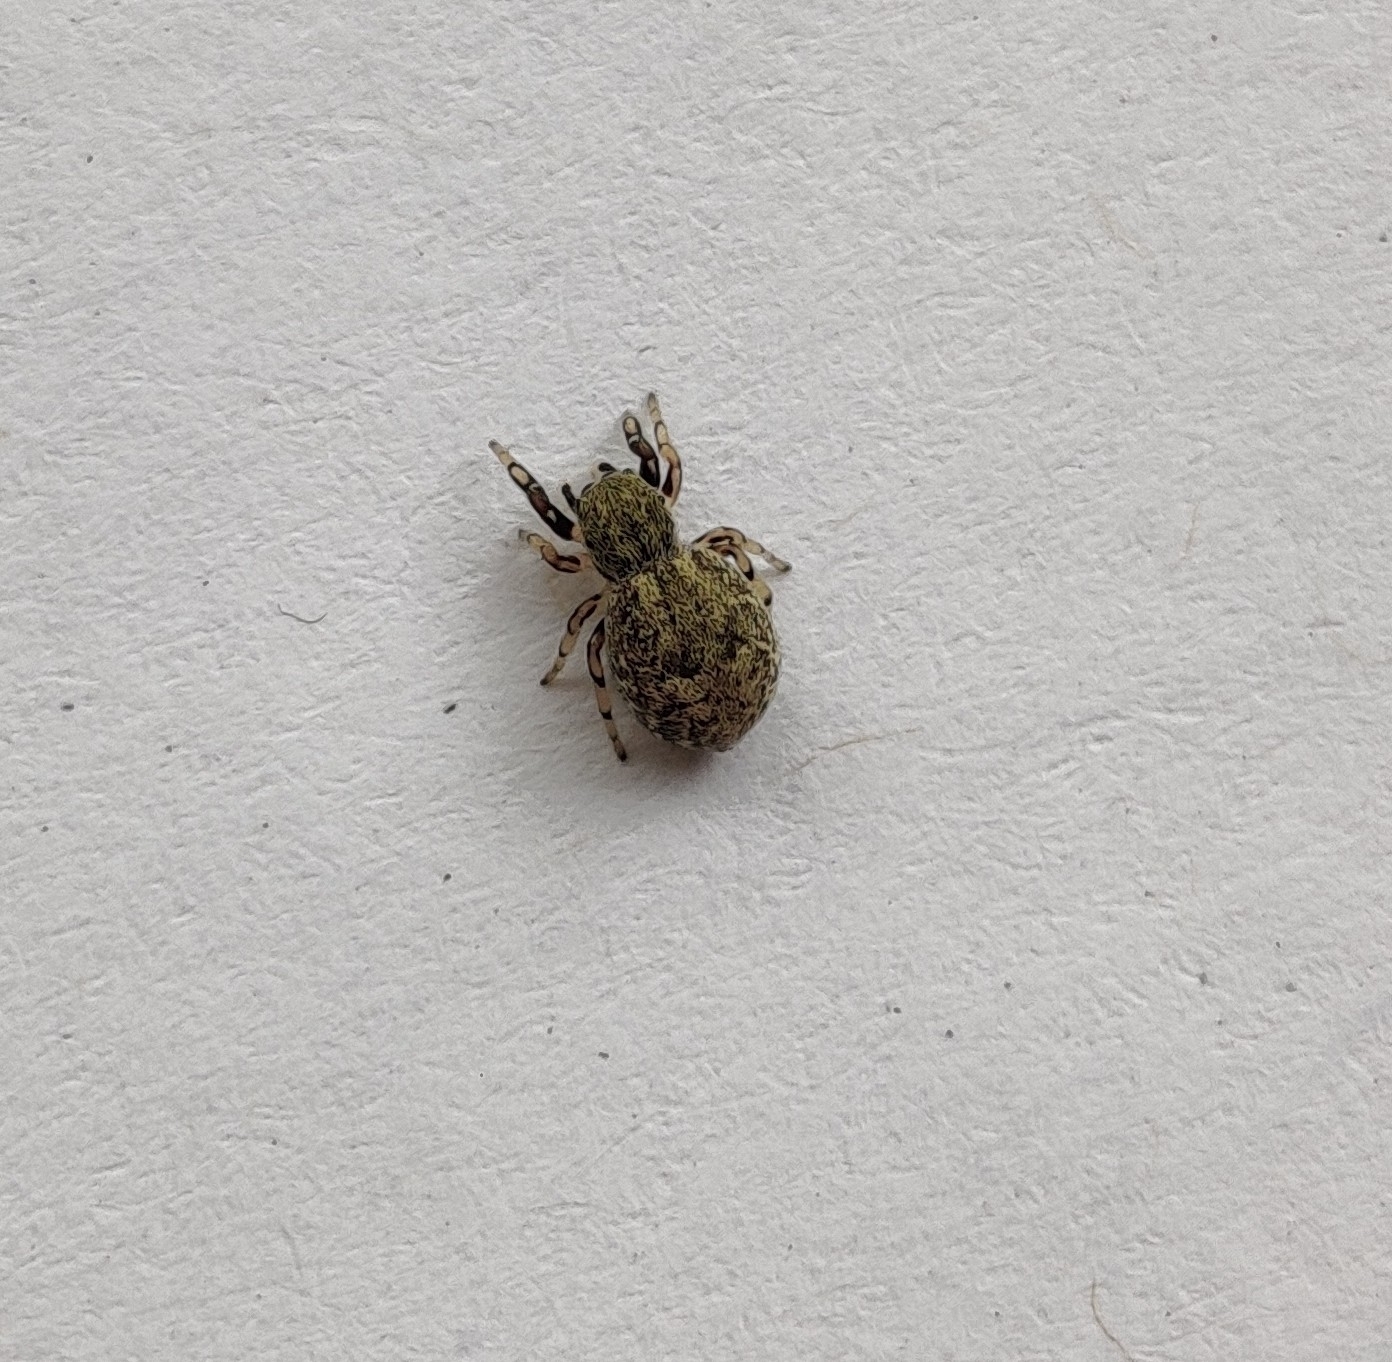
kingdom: Animalia
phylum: Arthropoda
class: Arachnida
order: Araneae
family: Salticidae
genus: Ballus
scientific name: Ballus chalybeius
